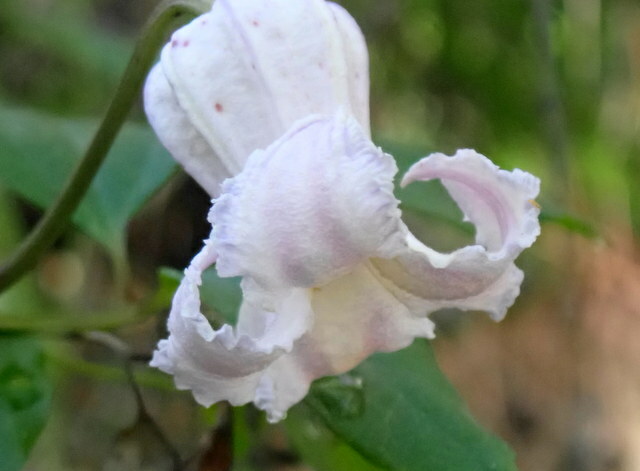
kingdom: Plantae
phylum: Tracheophyta
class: Magnoliopsida
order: Ranunculales
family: Ranunculaceae
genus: Clematis
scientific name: Clematis crispa
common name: Curly clematis
